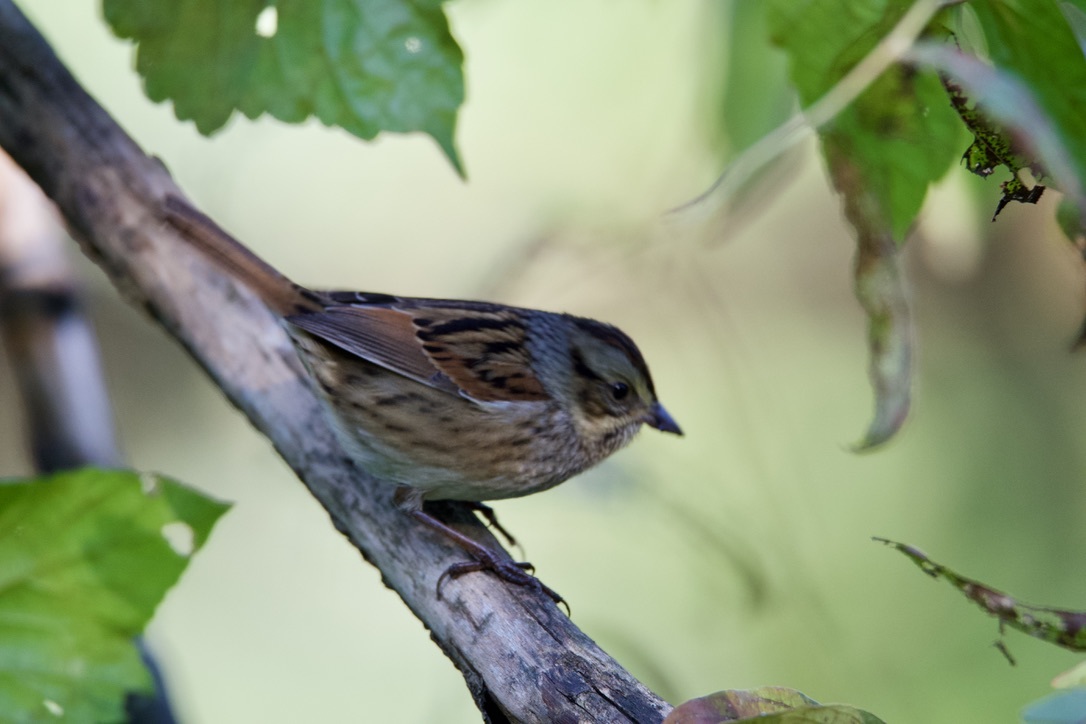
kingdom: Animalia
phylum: Chordata
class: Aves
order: Passeriformes
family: Passerellidae
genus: Melospiza
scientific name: Melospiza georgiana
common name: Swamp sparrow
